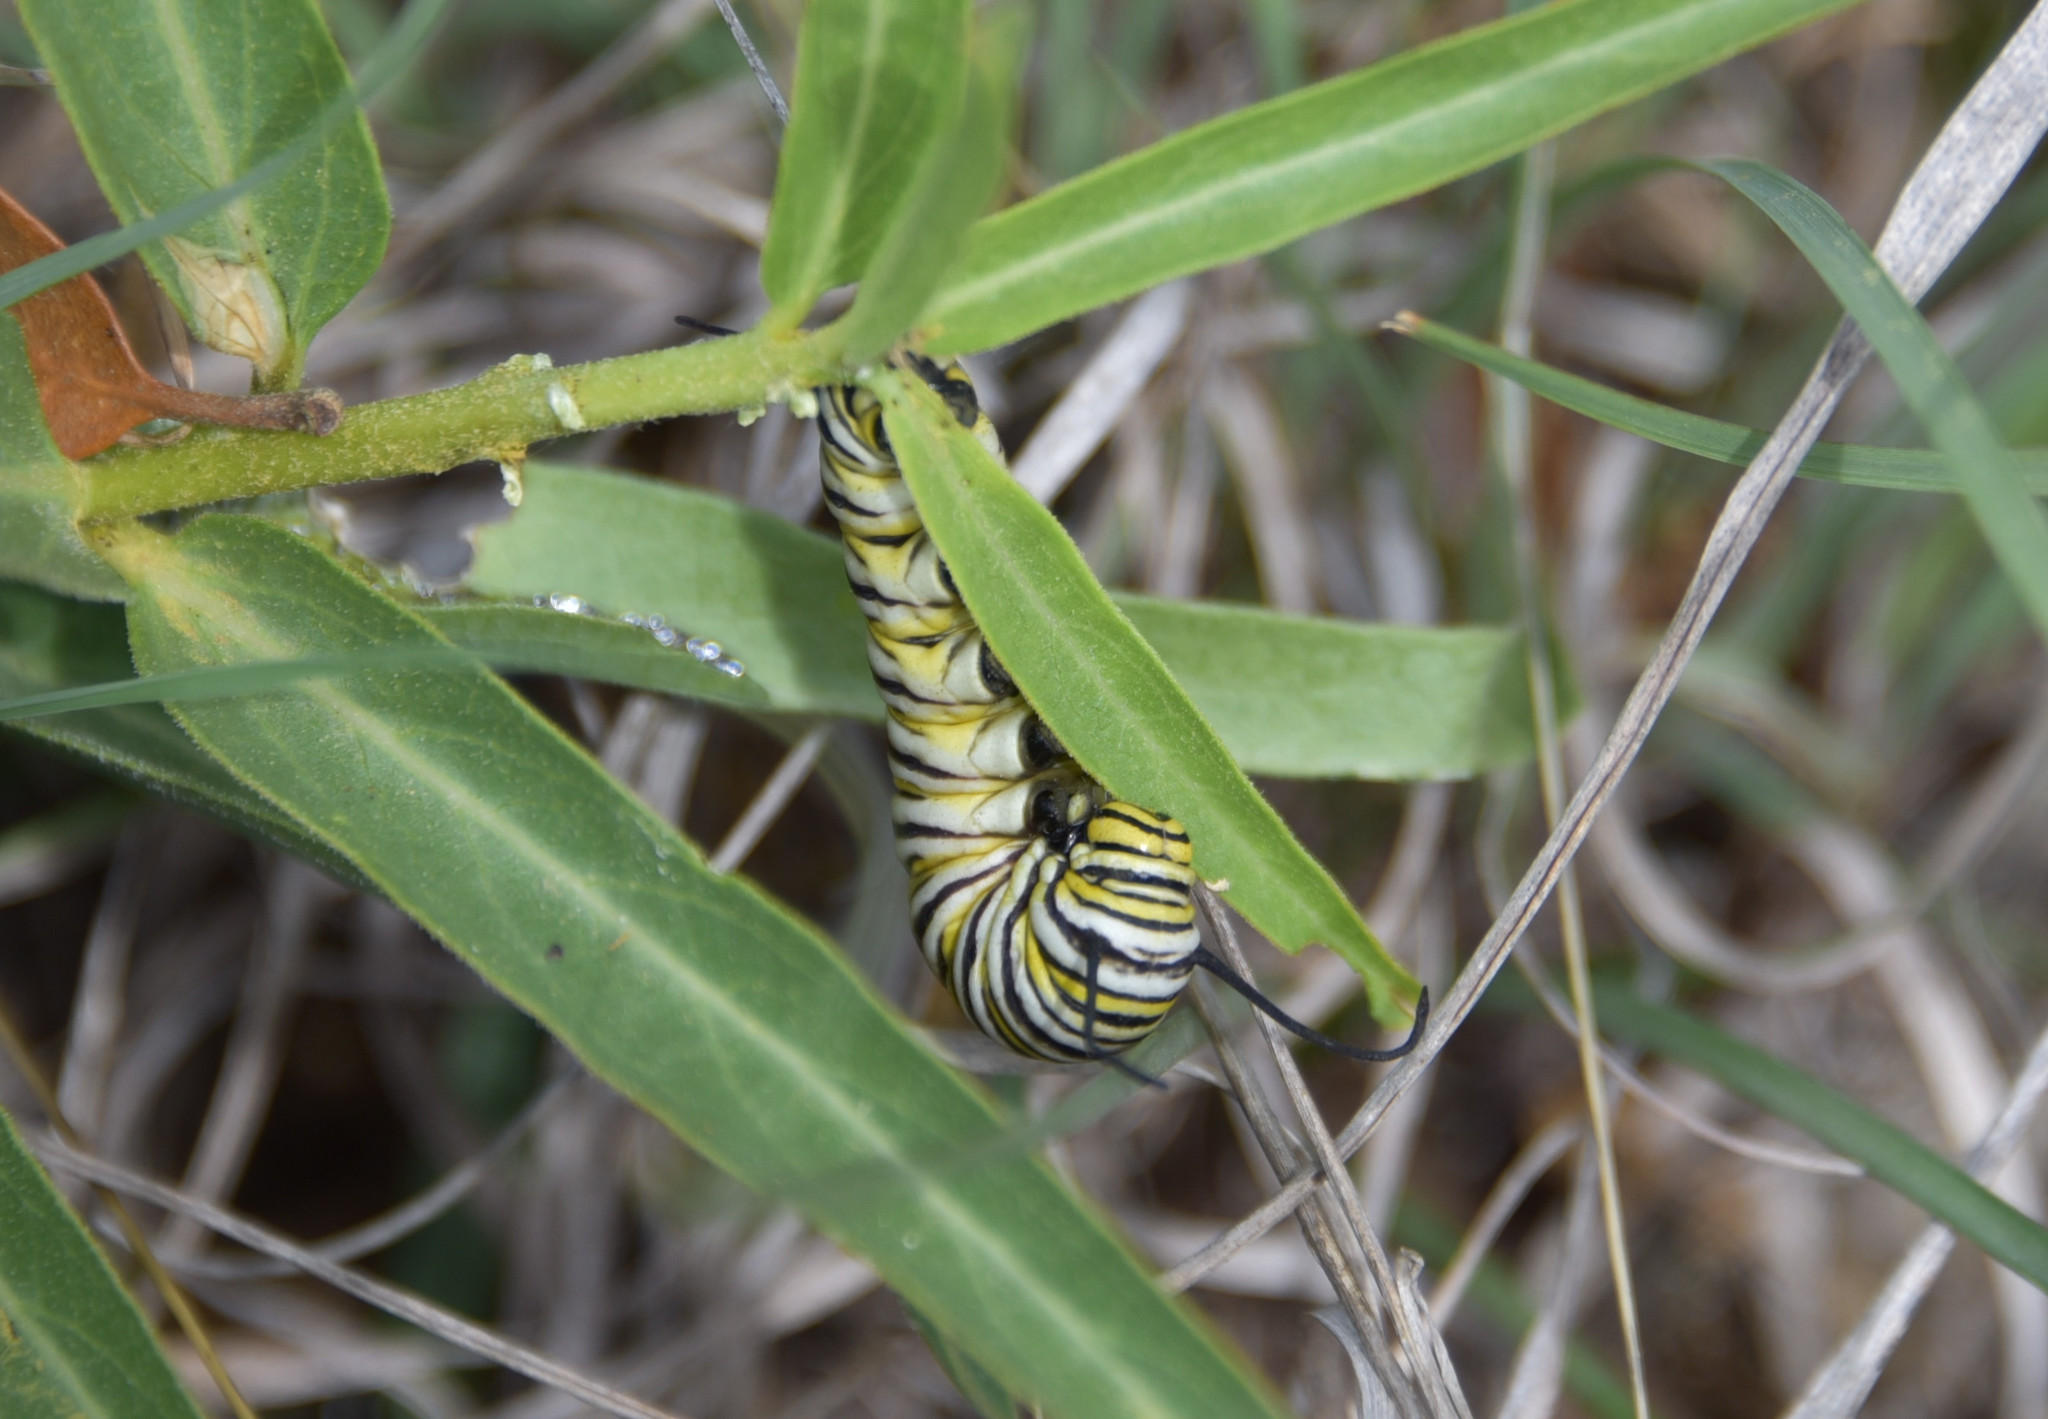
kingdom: Animalia
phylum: Arthropoda
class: Insecta
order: Lepidoptera
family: Nymphalidae
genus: Danaus
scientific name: Danaus plexippus
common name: Monarch
